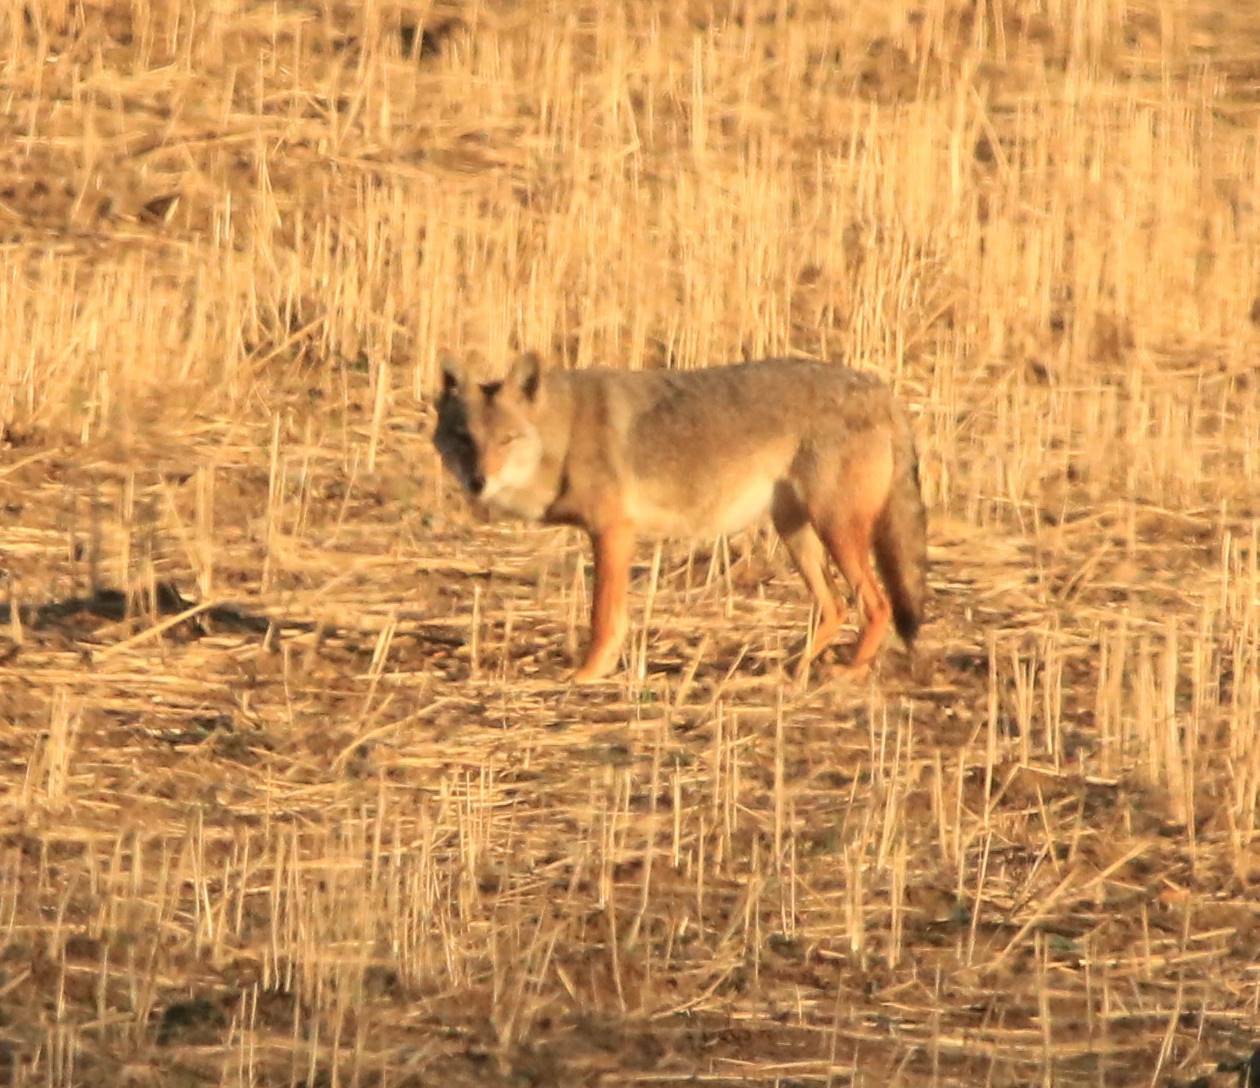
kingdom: Animalia
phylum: Chordata
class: Mammalia
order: Carnivora
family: Canidae
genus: Canis
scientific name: Canis lupaster
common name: African golden wolf
